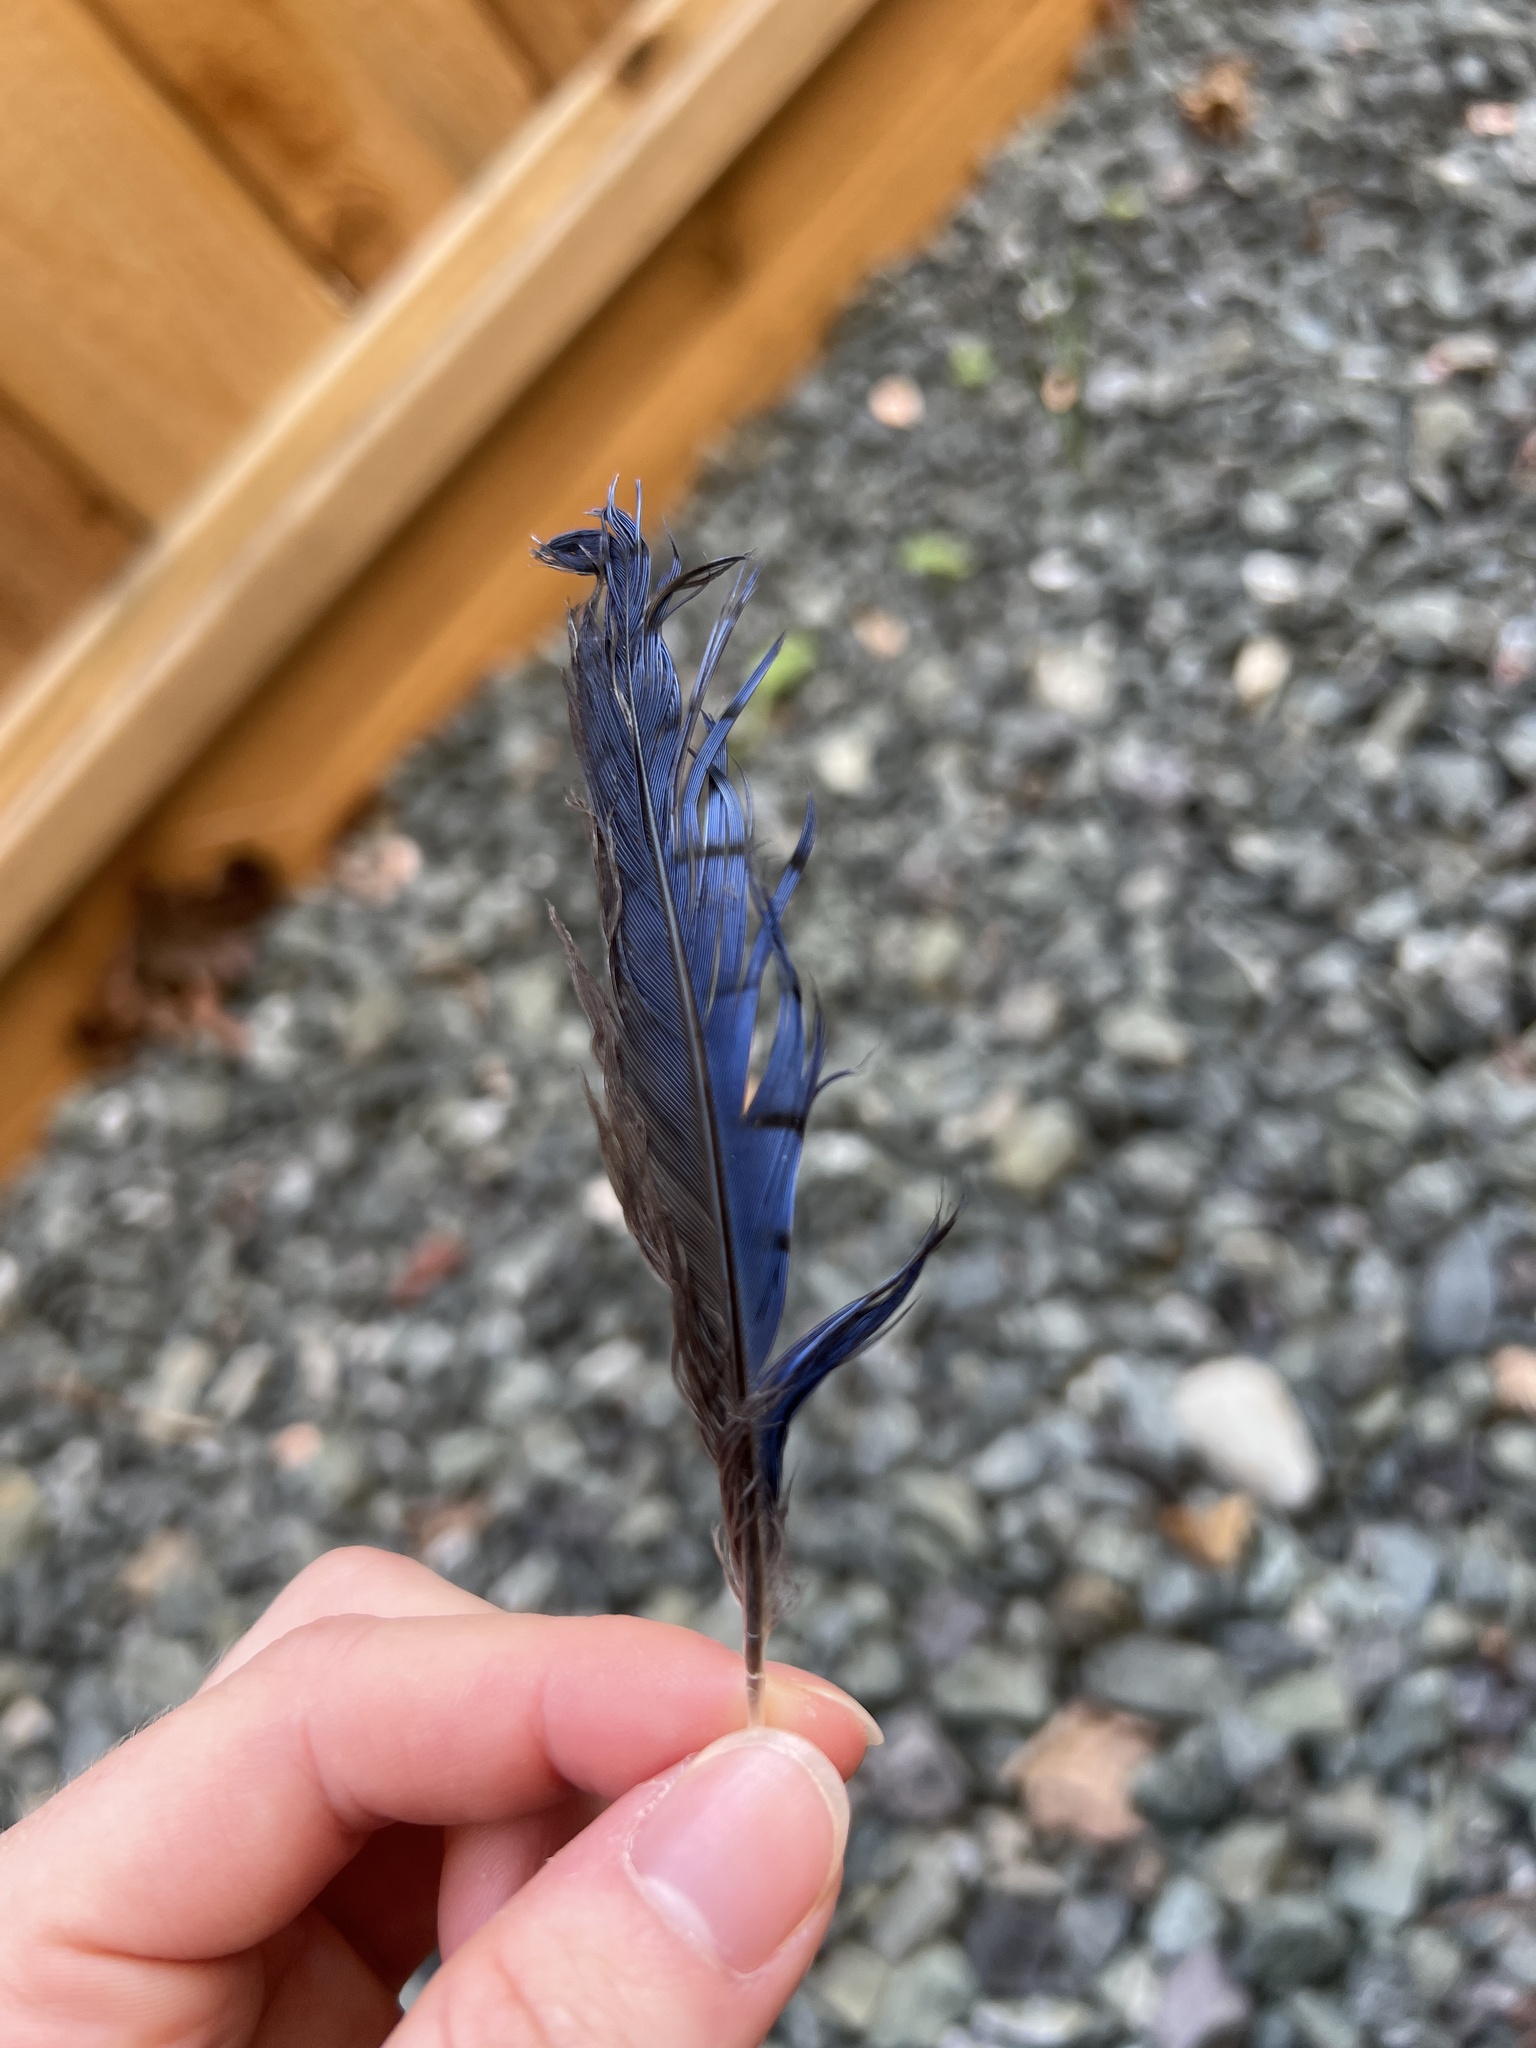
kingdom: Animalia
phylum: Chordata
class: Aves
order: Passeriformes
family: Corvidae
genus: Cyanocitta
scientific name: Cyanocitta stelleri
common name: Steller's jay
